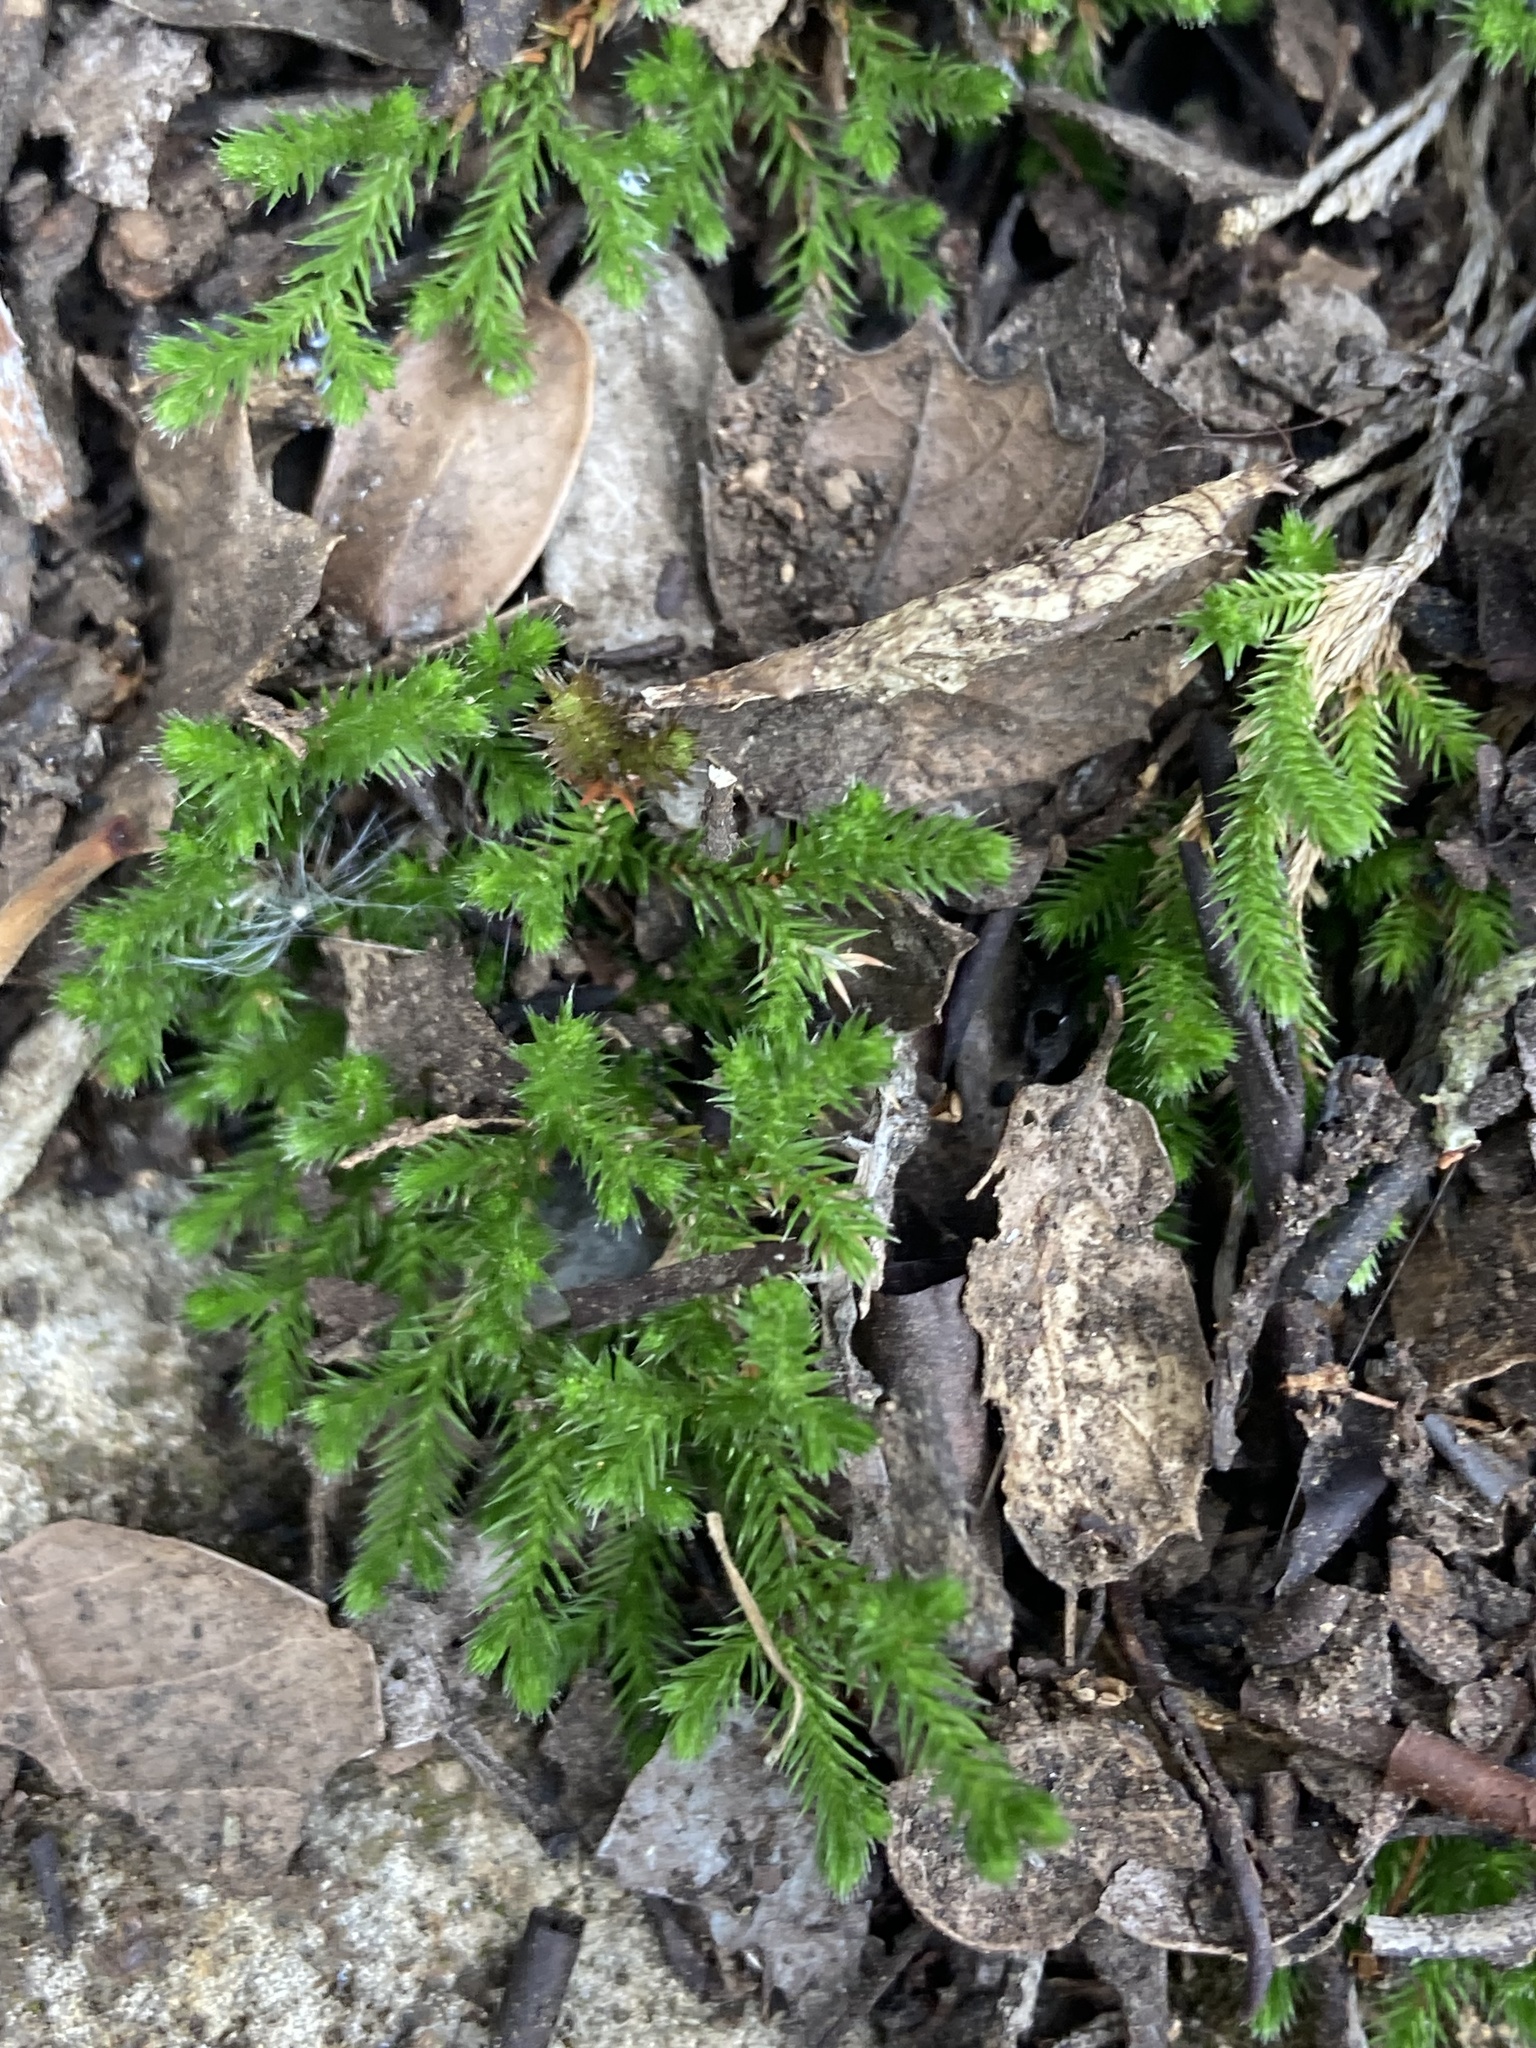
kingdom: Plantae
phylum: Tracheophyta
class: Lycopodiopsida
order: Selaginellales
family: Selaginellaceae
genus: Selaginella
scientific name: Selaginella bigelovii
